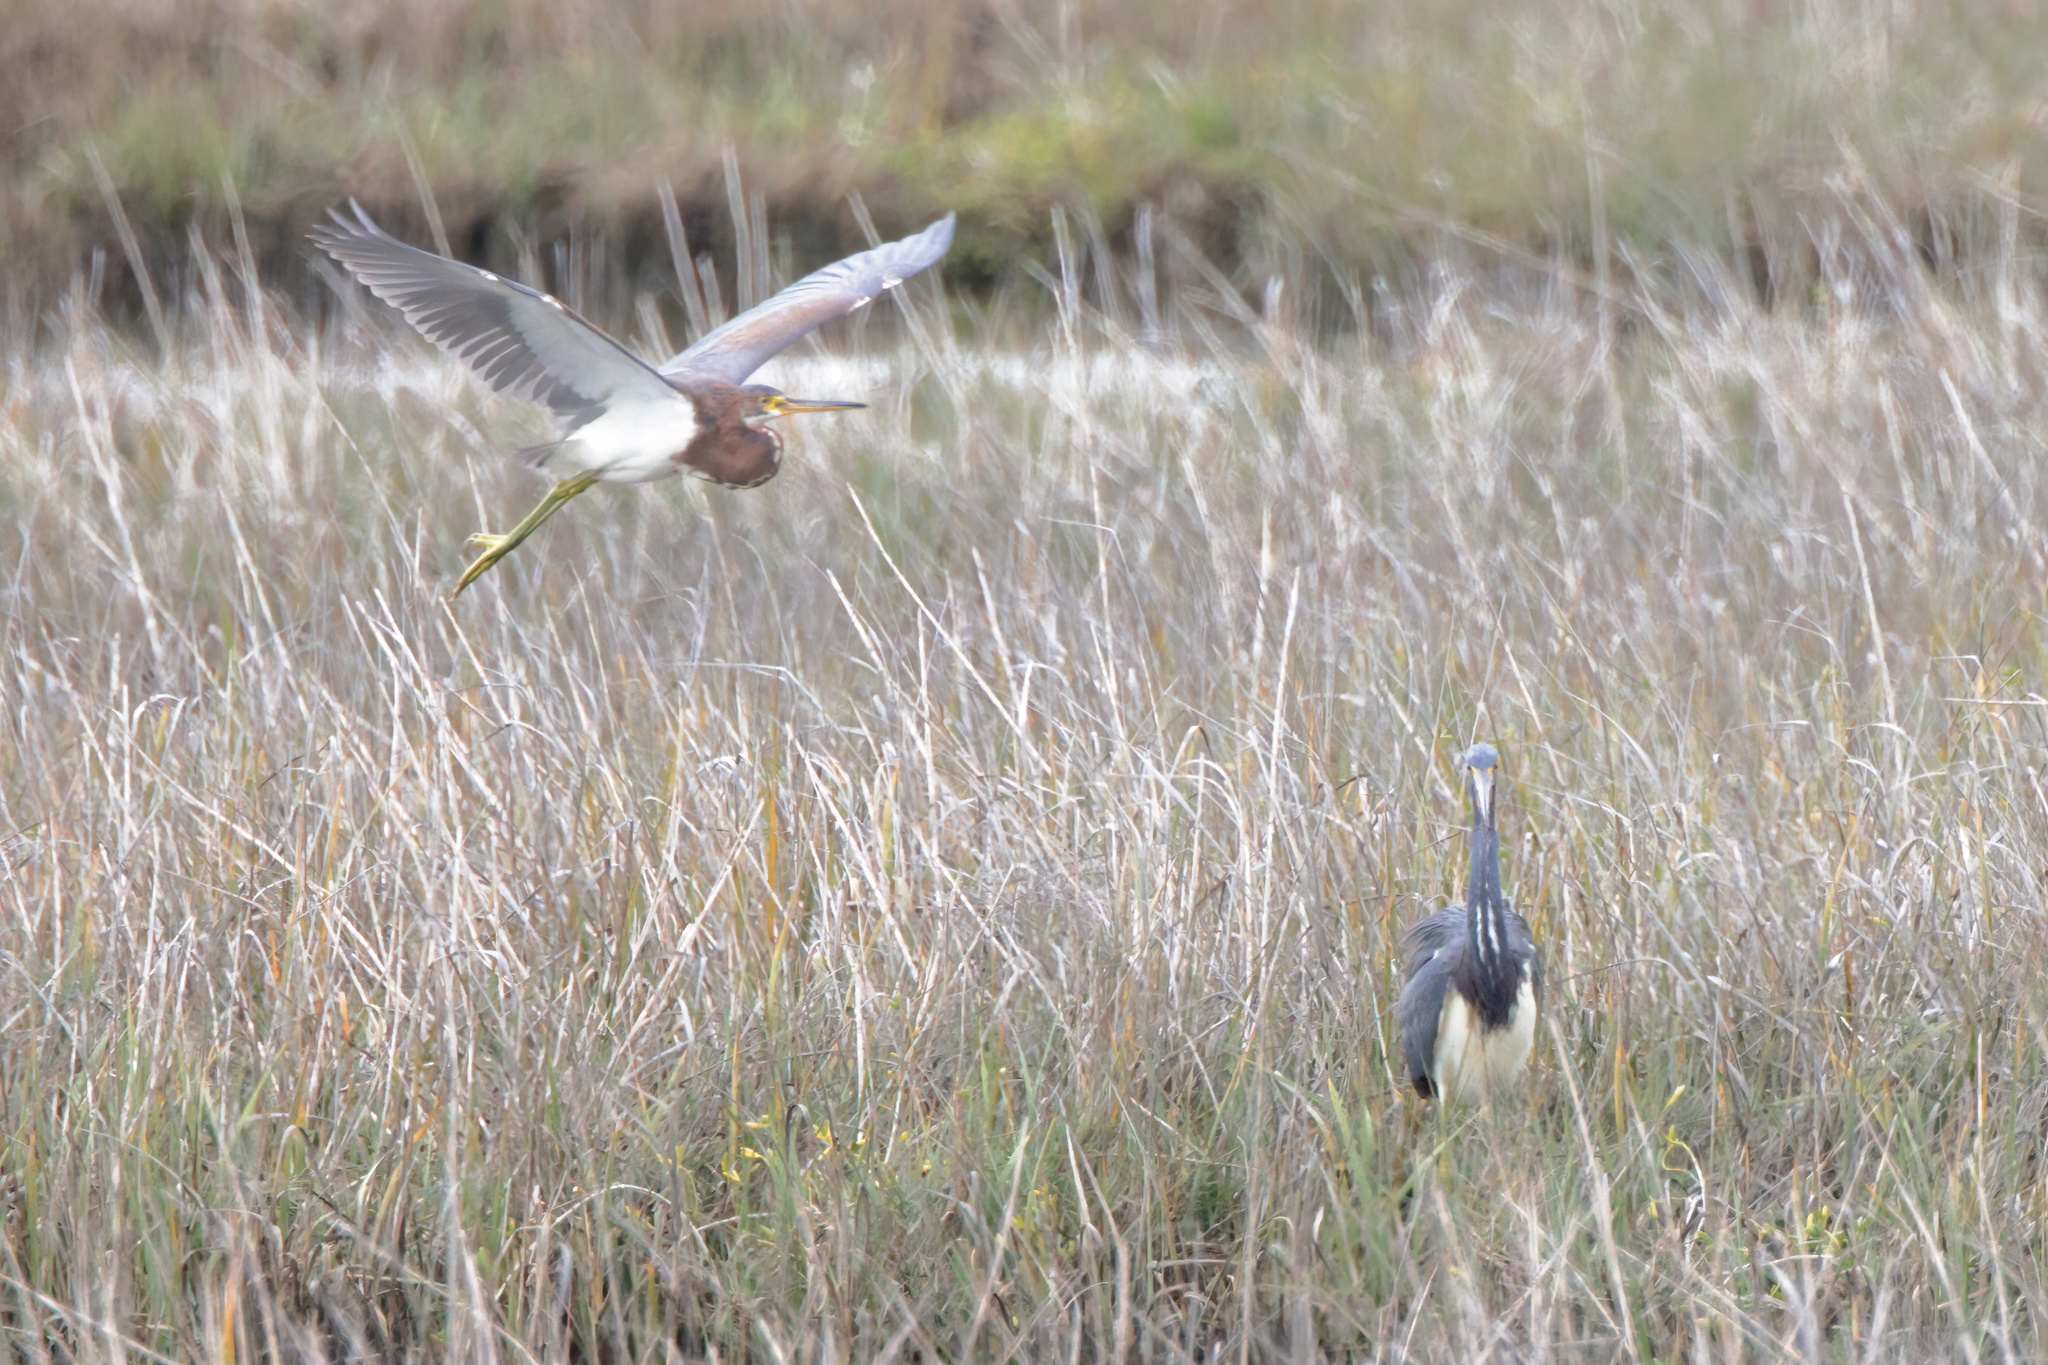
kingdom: Animalia
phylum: Chordata
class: Aves
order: Pelecaniformes
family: Ardeidae
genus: Egretta
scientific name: Egretta tricolor
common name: Tricolored heron
